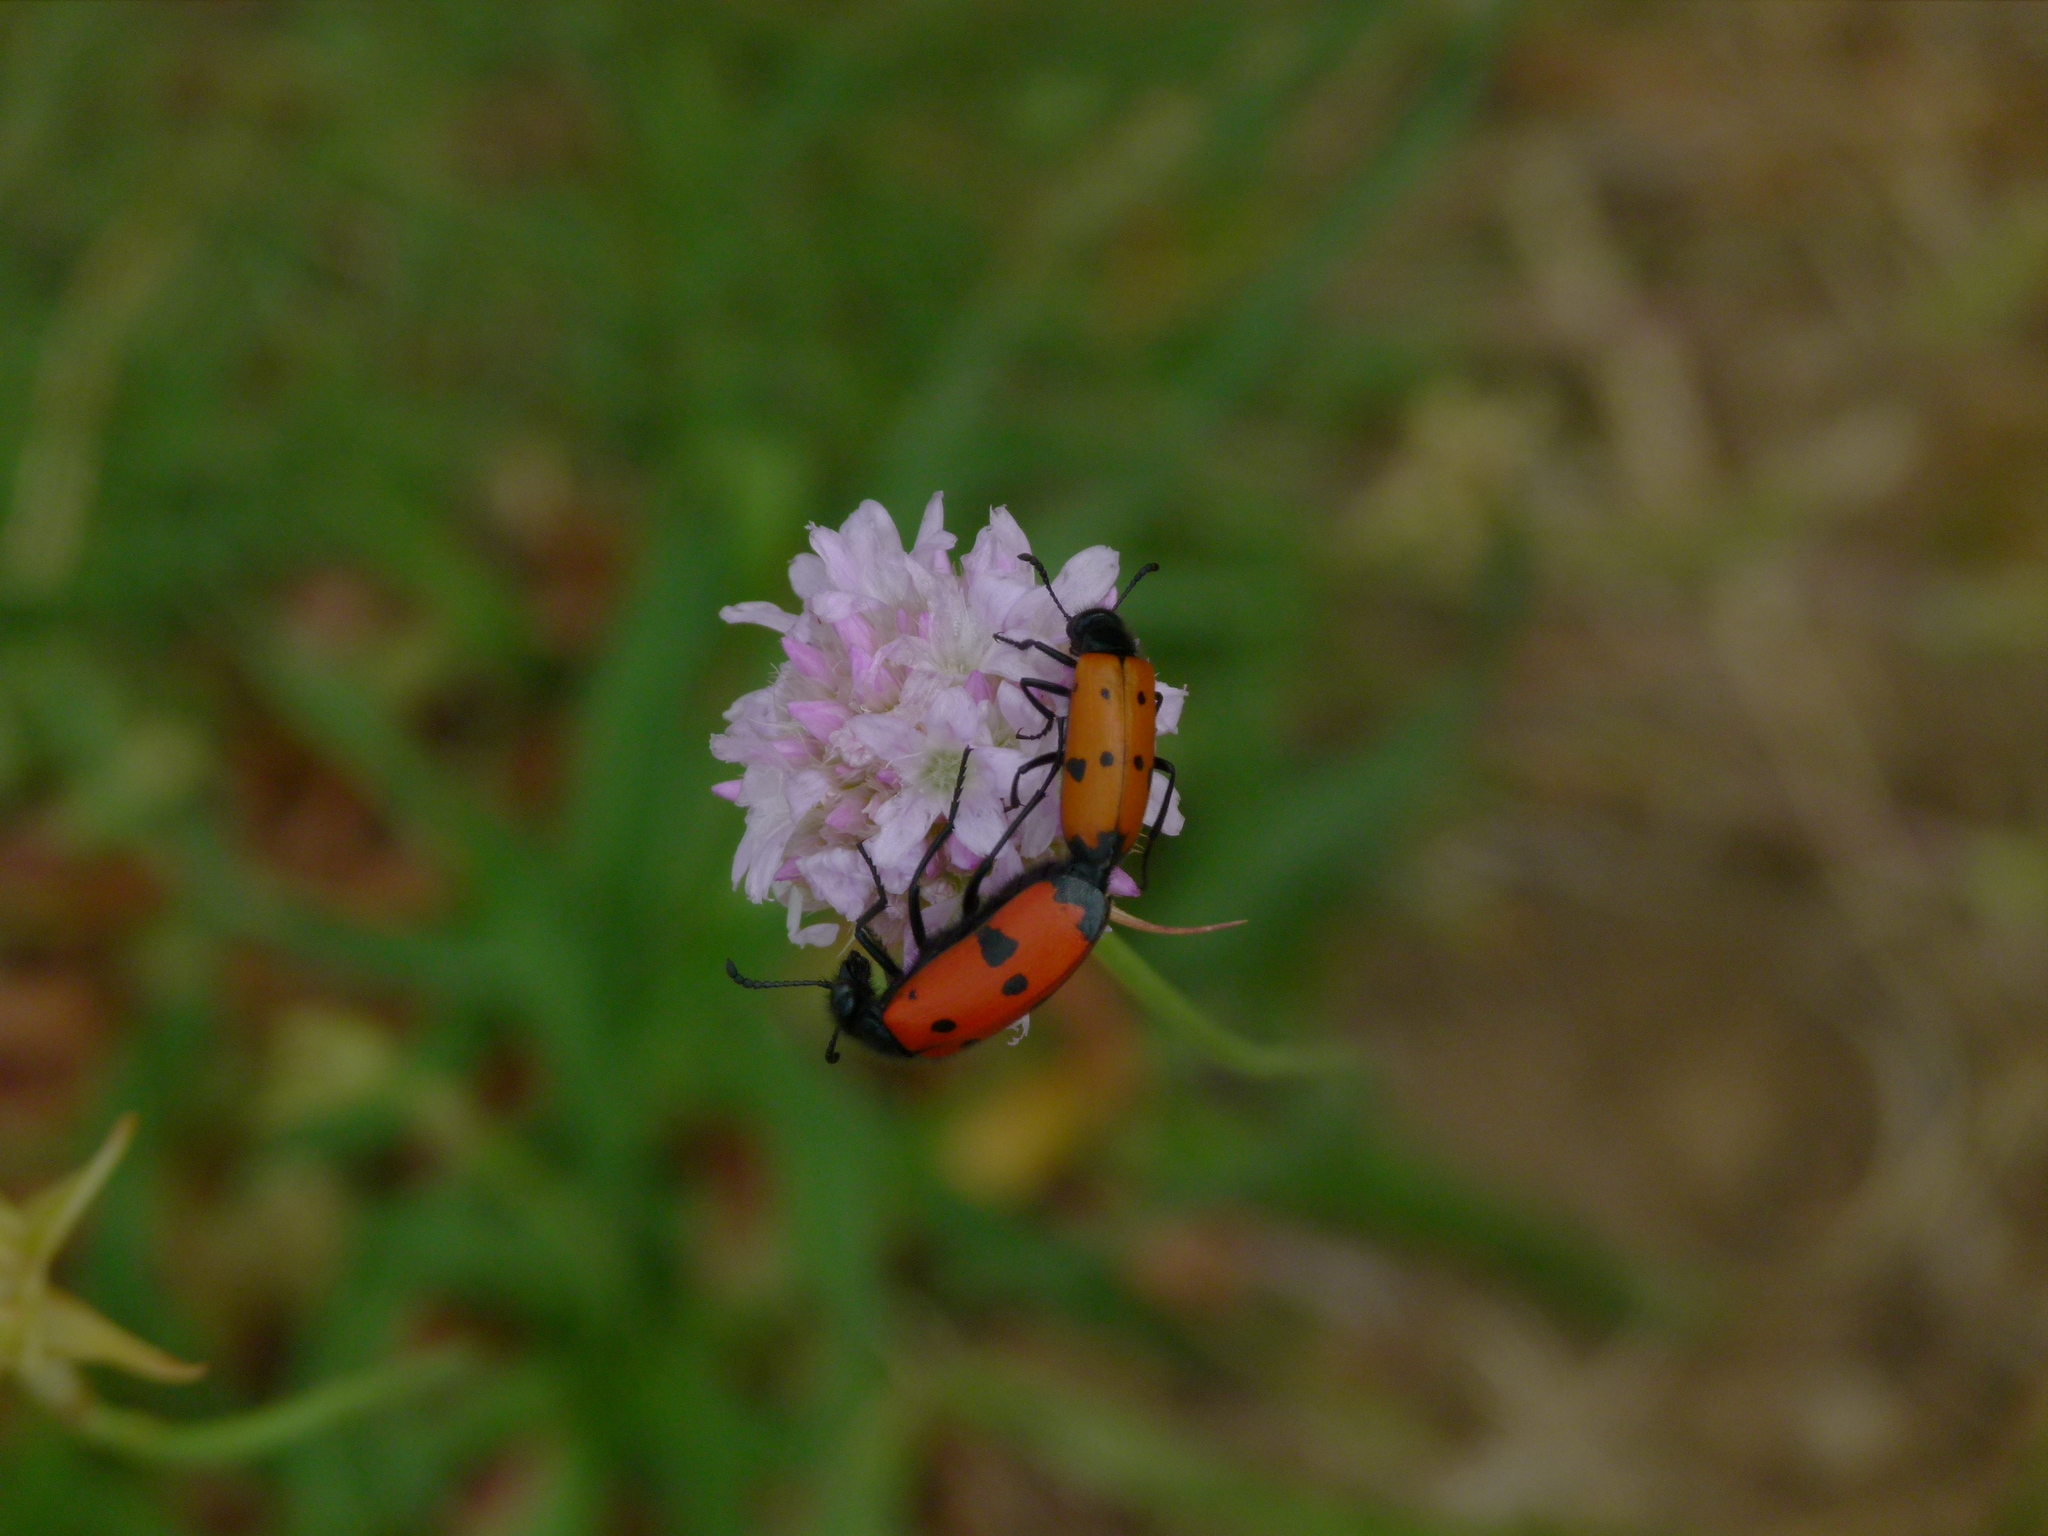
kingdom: Animalia
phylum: Arthropoda
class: Insecta
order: Coleoptera
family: Meloidae
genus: Mylabris
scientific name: Mylabris quadripunctata
